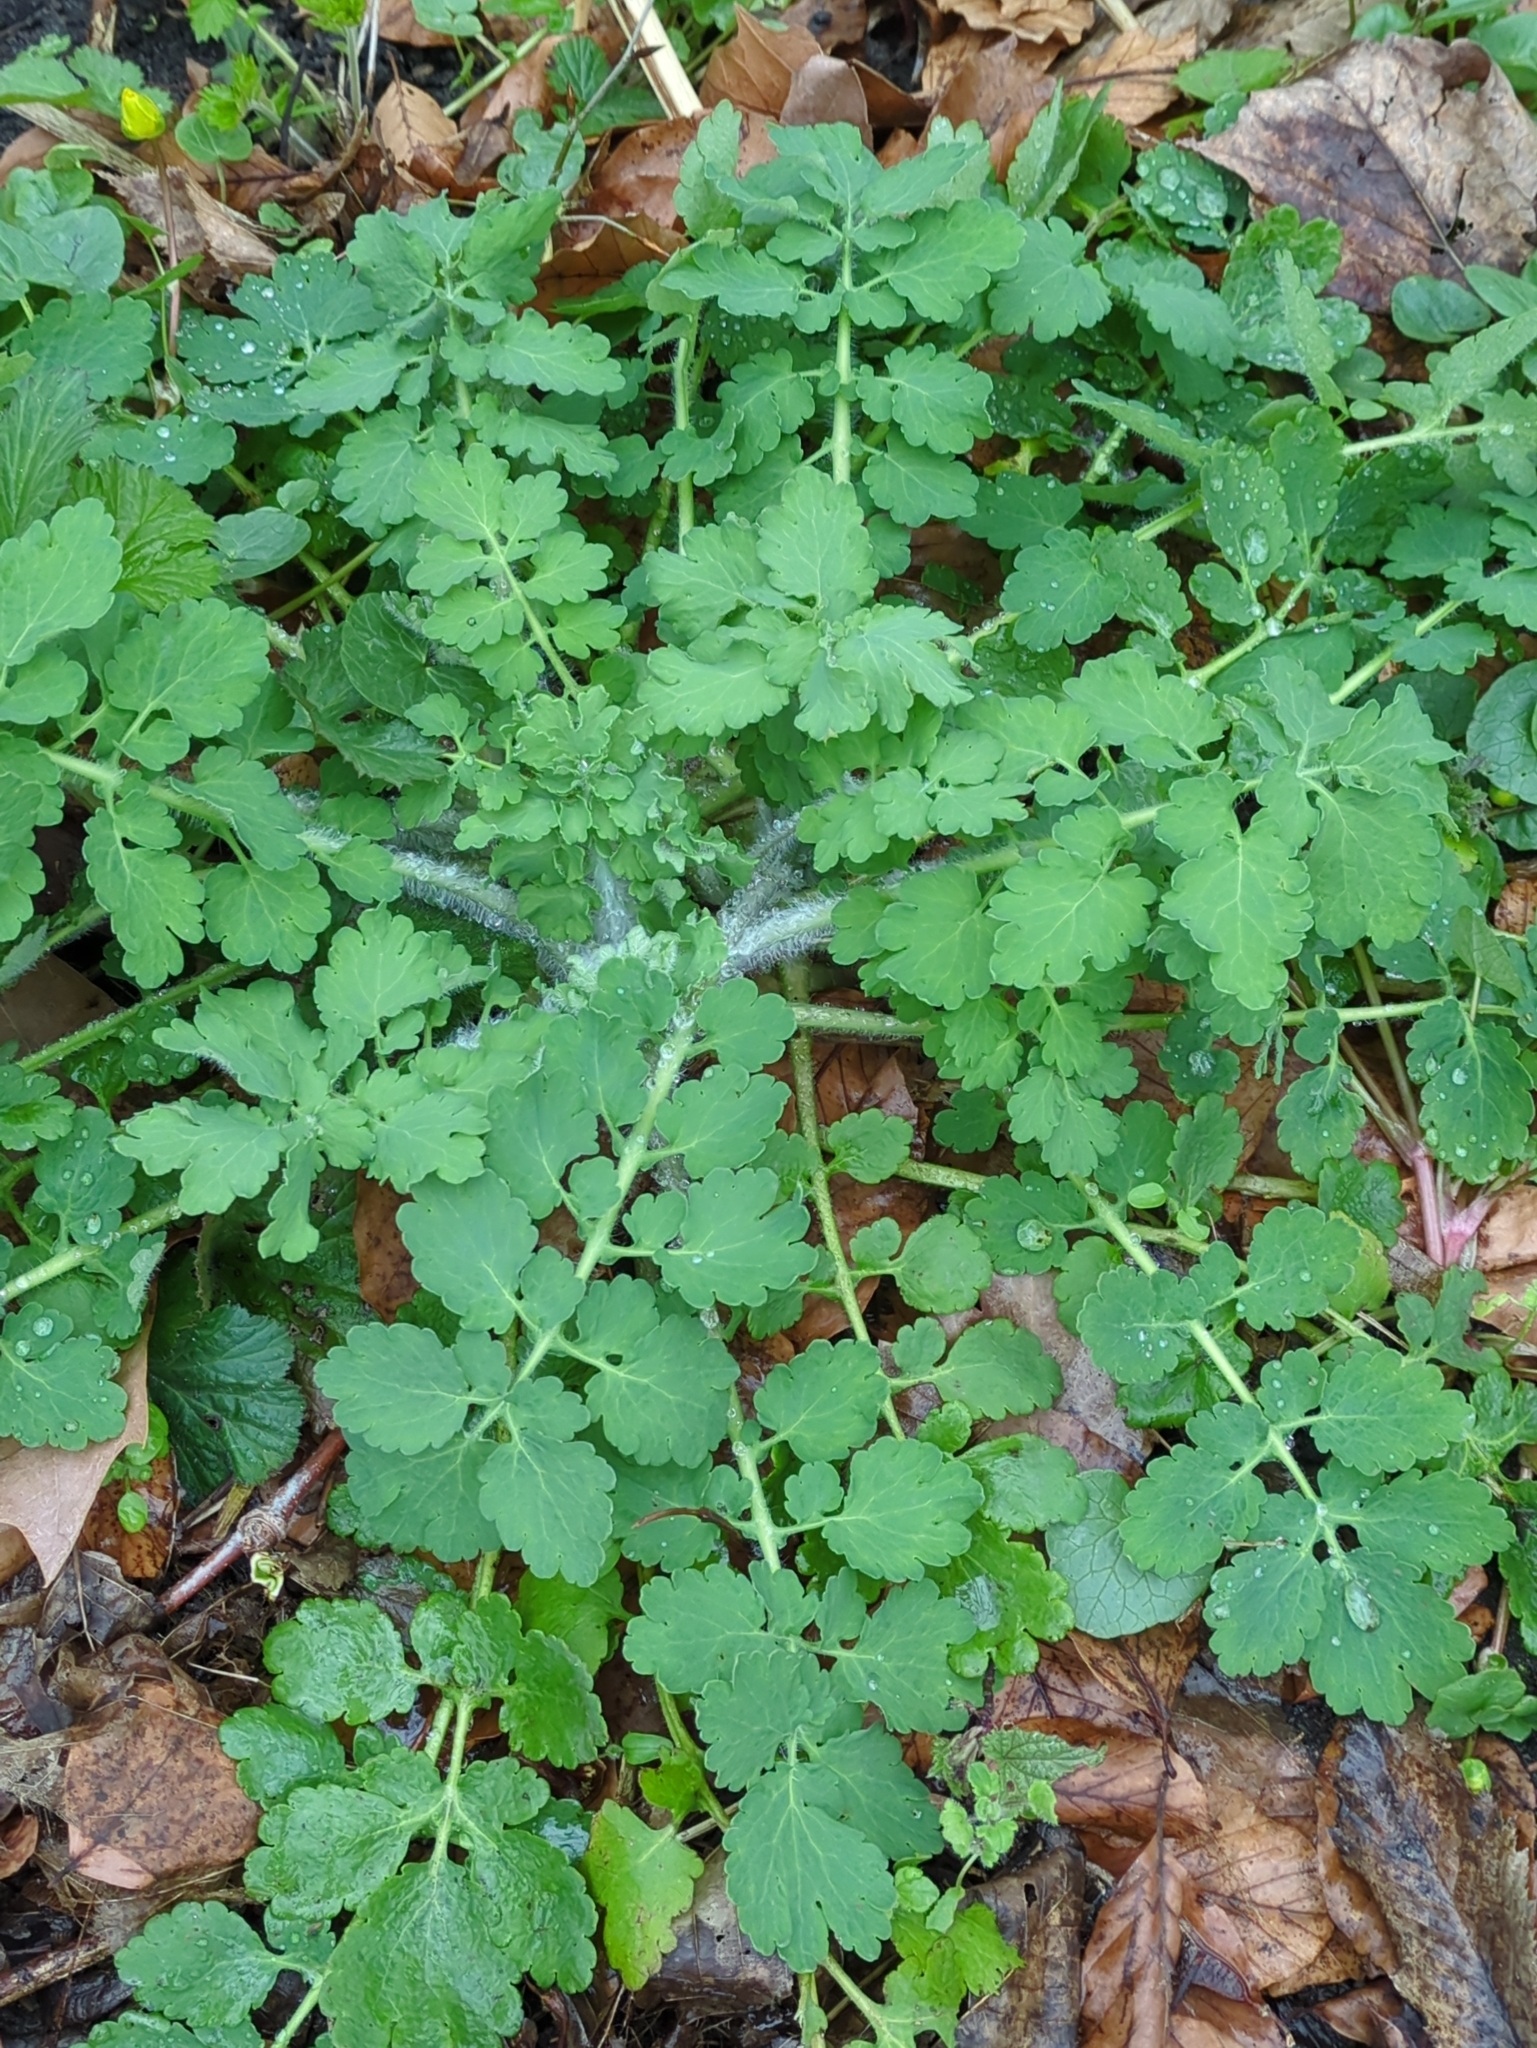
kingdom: Plantae
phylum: Tracheophyta
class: Magnoliopsida
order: Ranunculales
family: Papaveraceae
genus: Chelidonium
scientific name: Chelidonium majus
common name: Greater celandine
